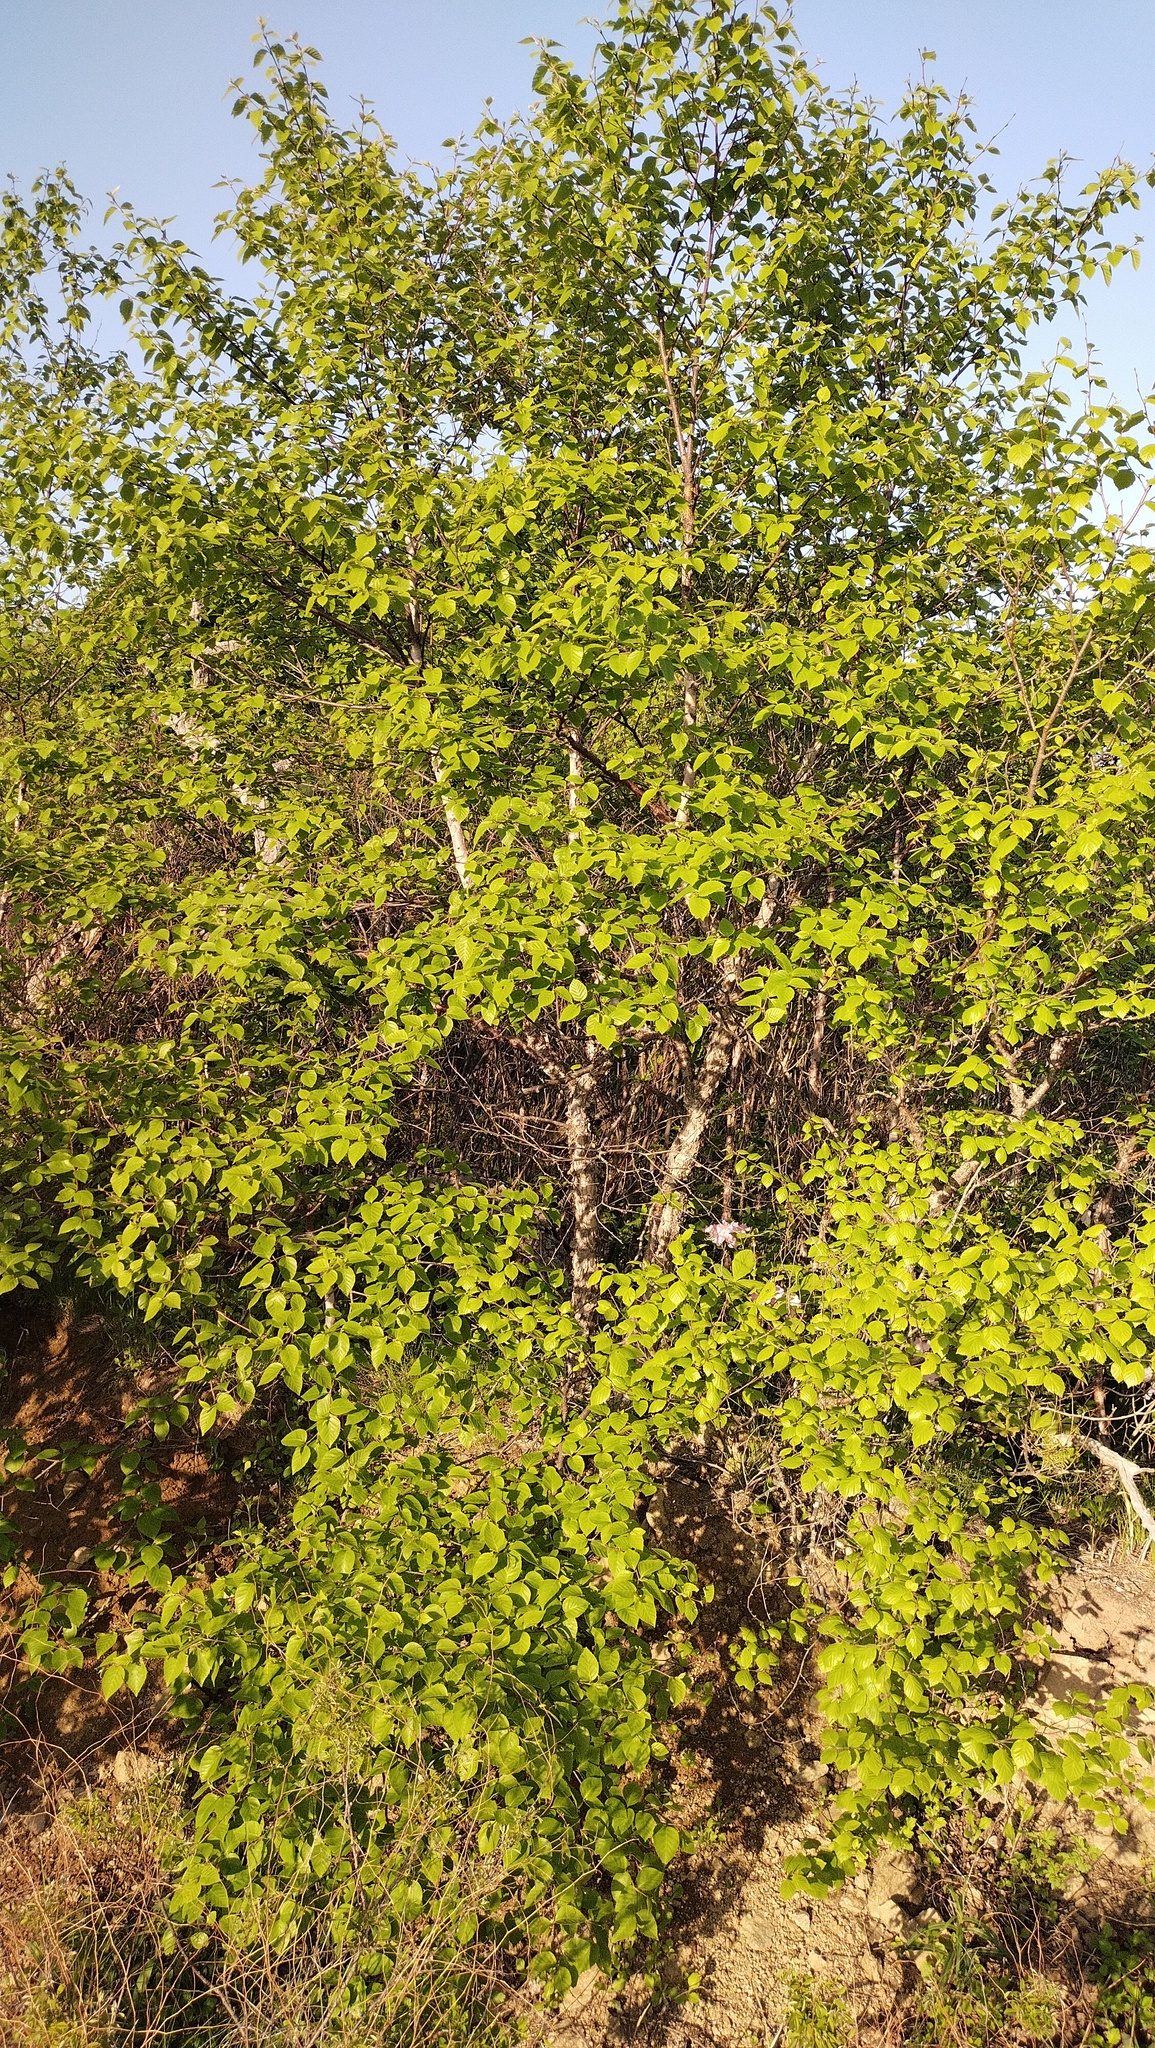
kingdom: Plantae
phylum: Tracheophyta
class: Magnoliopsida
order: Fagales
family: Betulaceae
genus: Betula
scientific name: Betula dauurica
